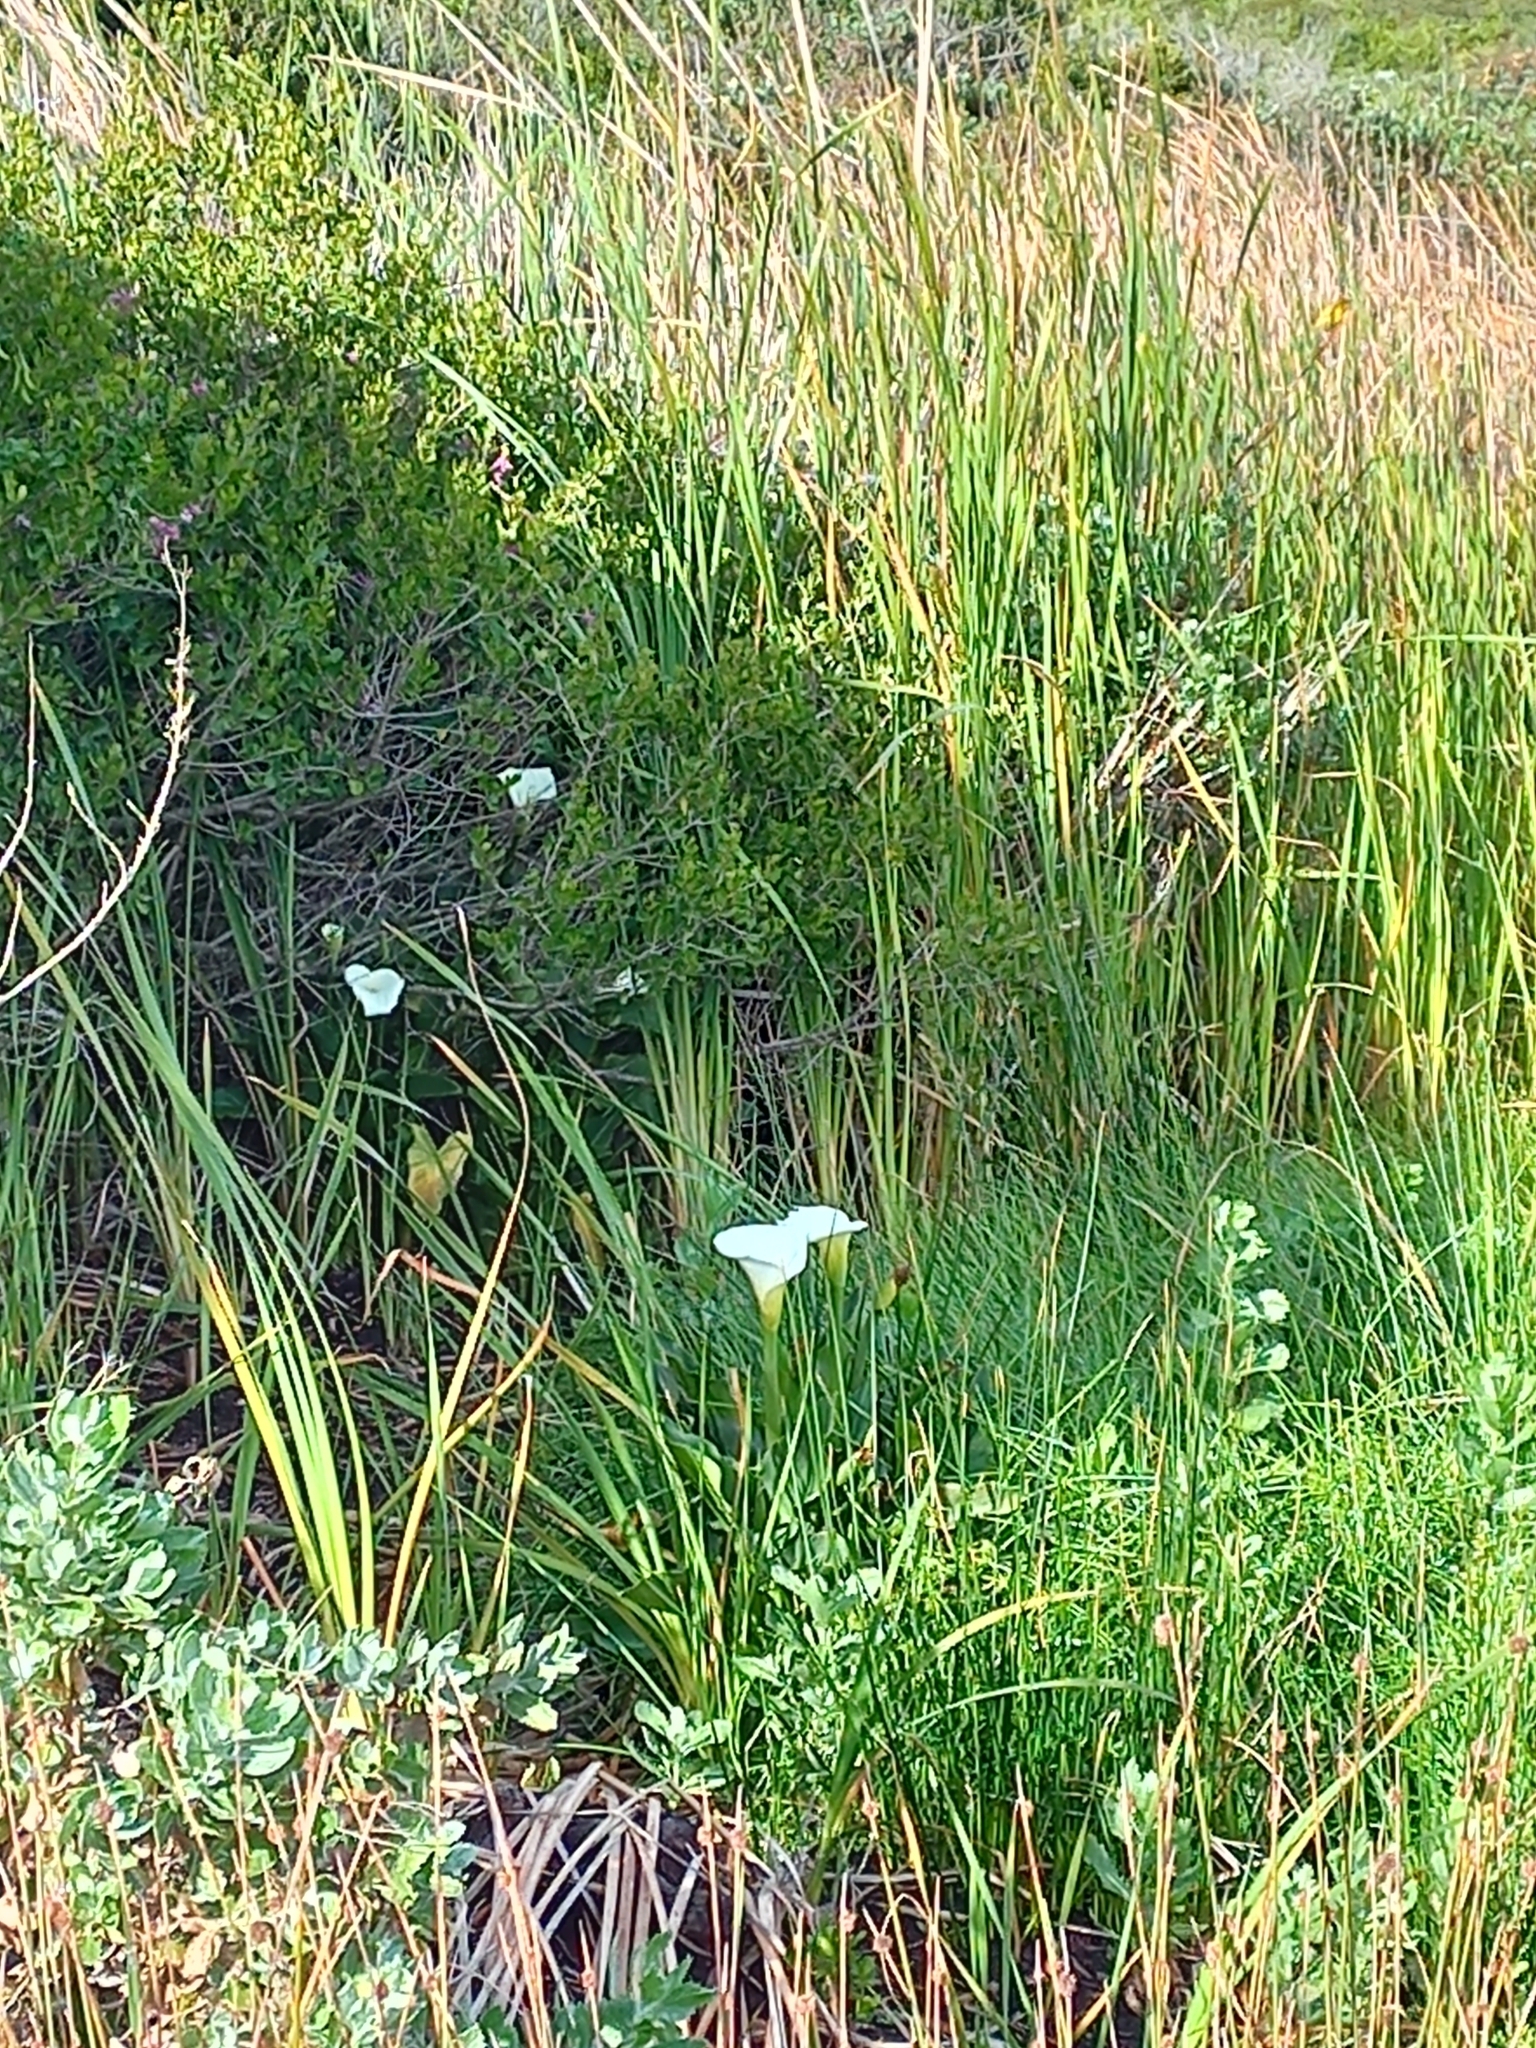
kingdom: Plantae
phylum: Tracheophyta
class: Liliopsida
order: Alismatales
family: Araceae
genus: Zantedeschia
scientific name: Zantedeschia aethiopica
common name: Altar-lily
